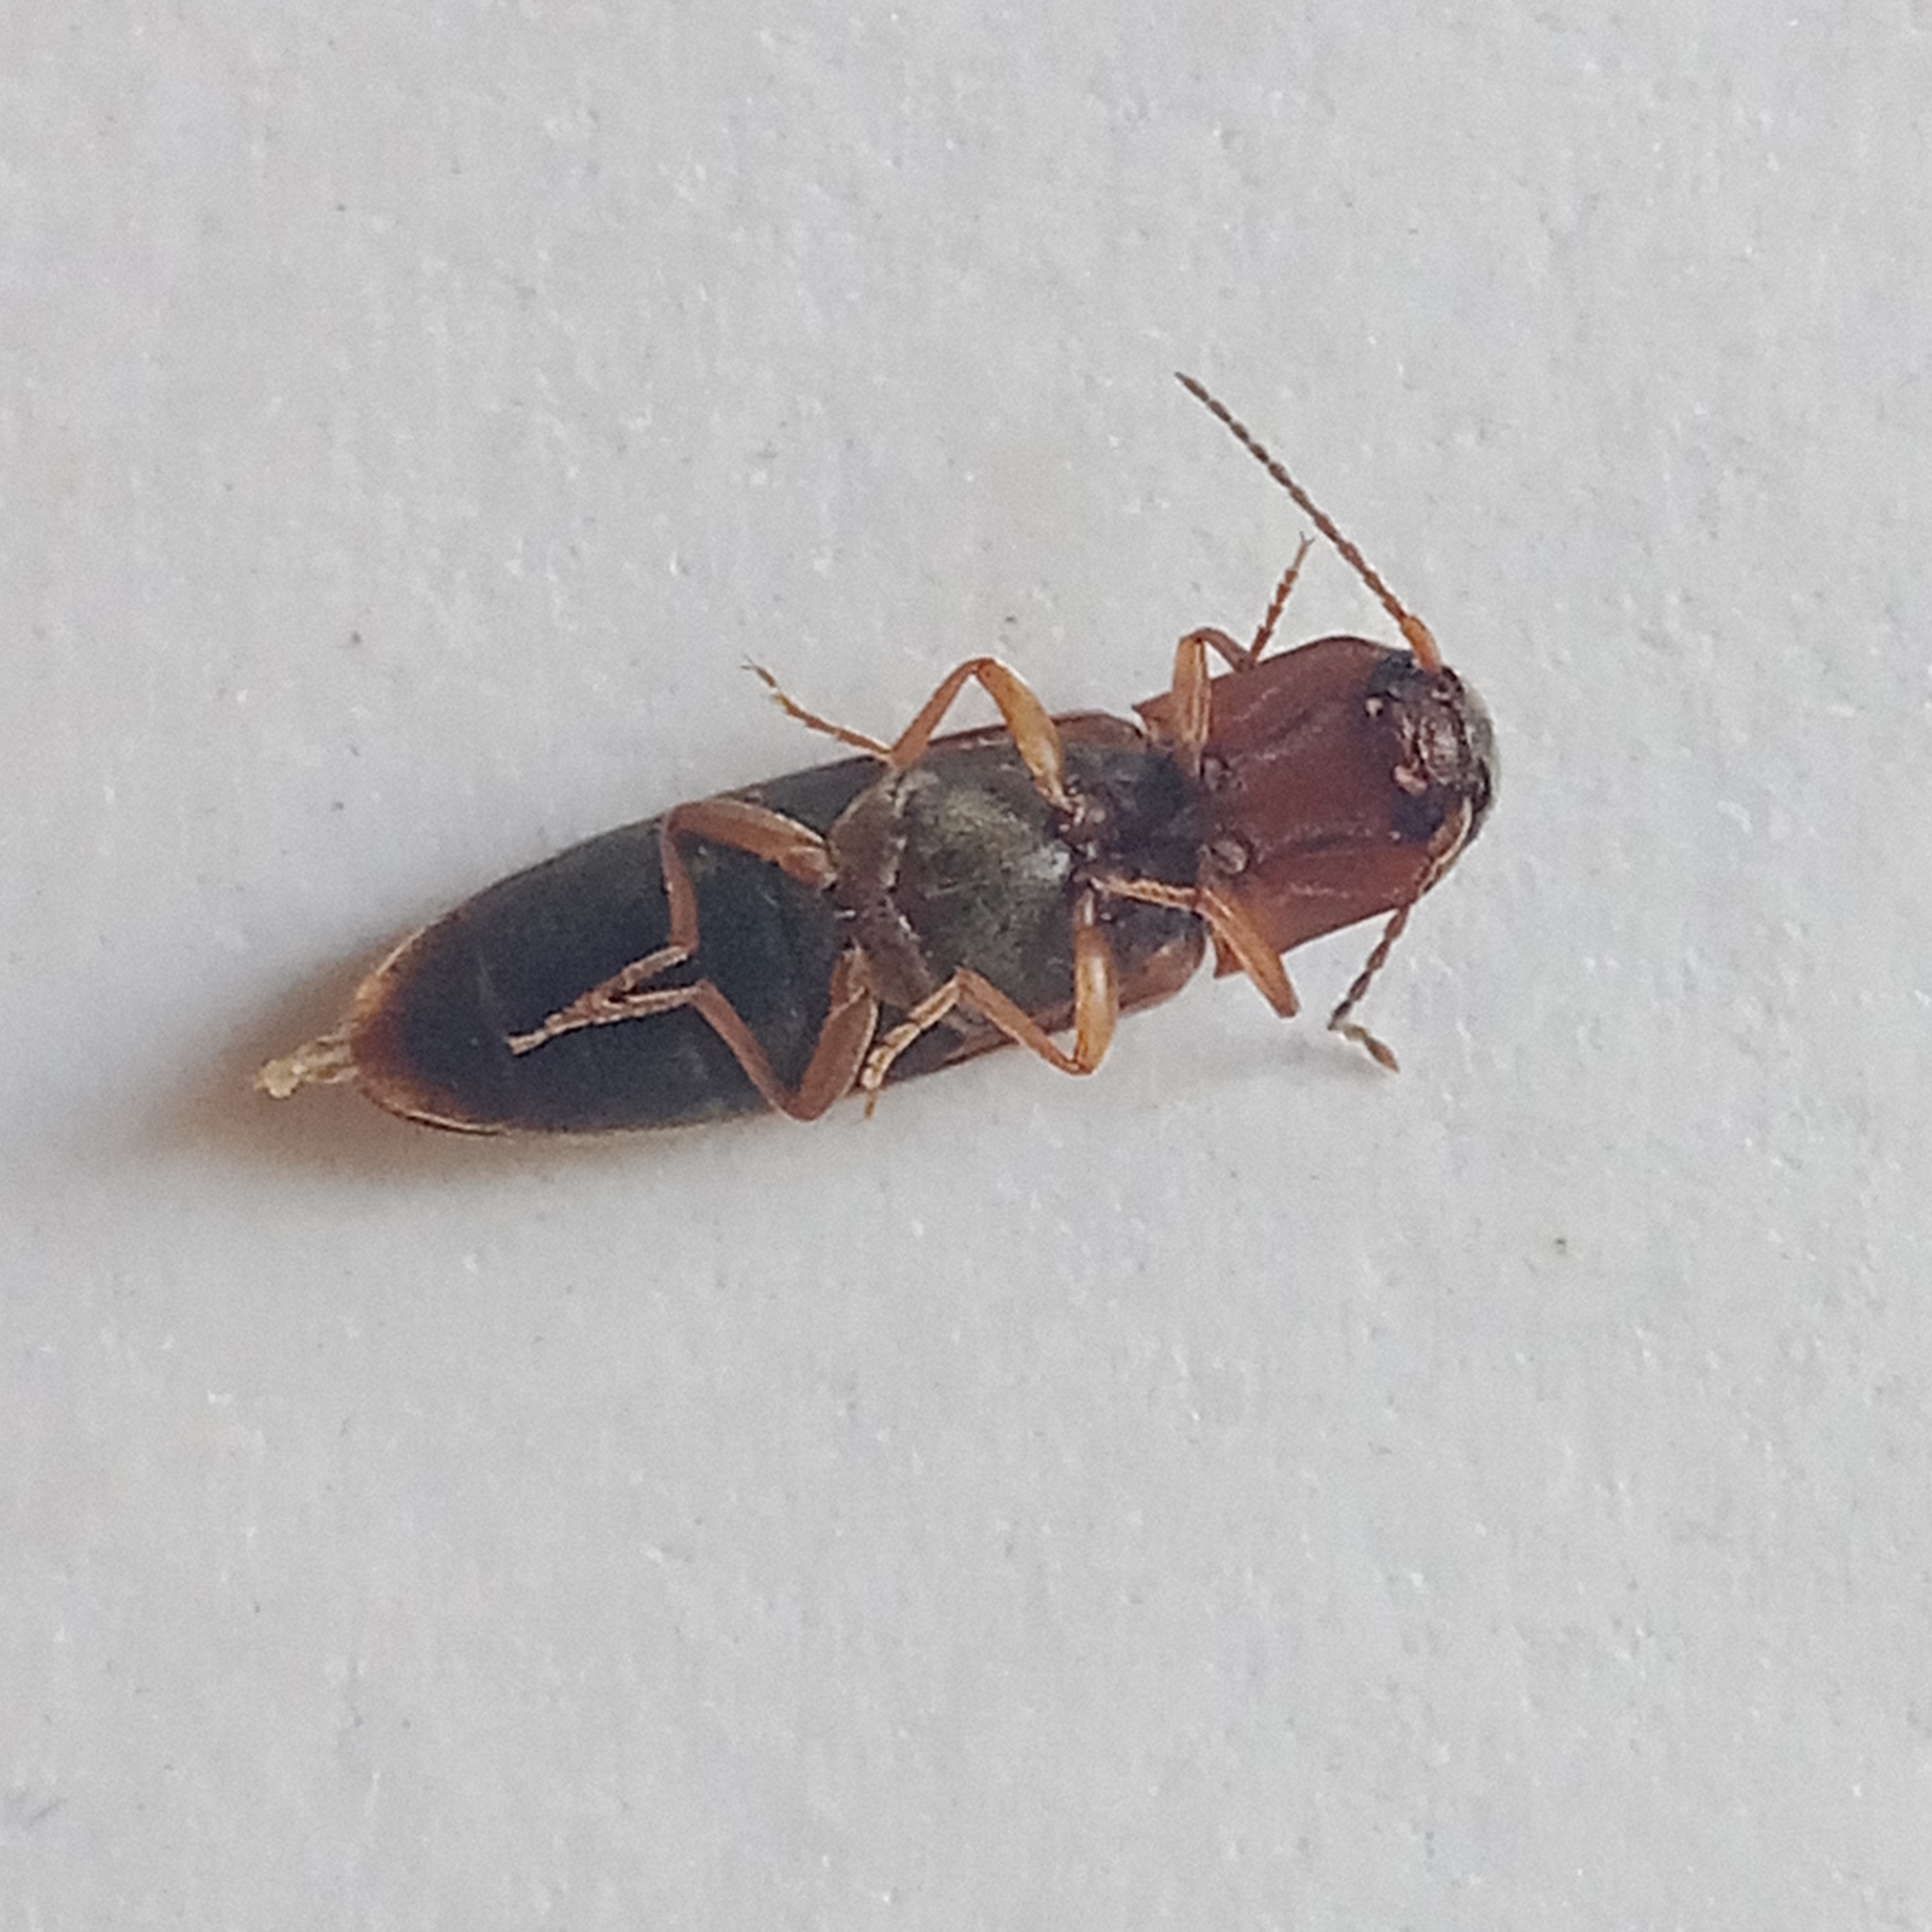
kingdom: Animalia
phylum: Arthropoda
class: Insecta
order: Coleoptera
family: Elateridae
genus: Dalopius
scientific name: Dalopius marginatus
